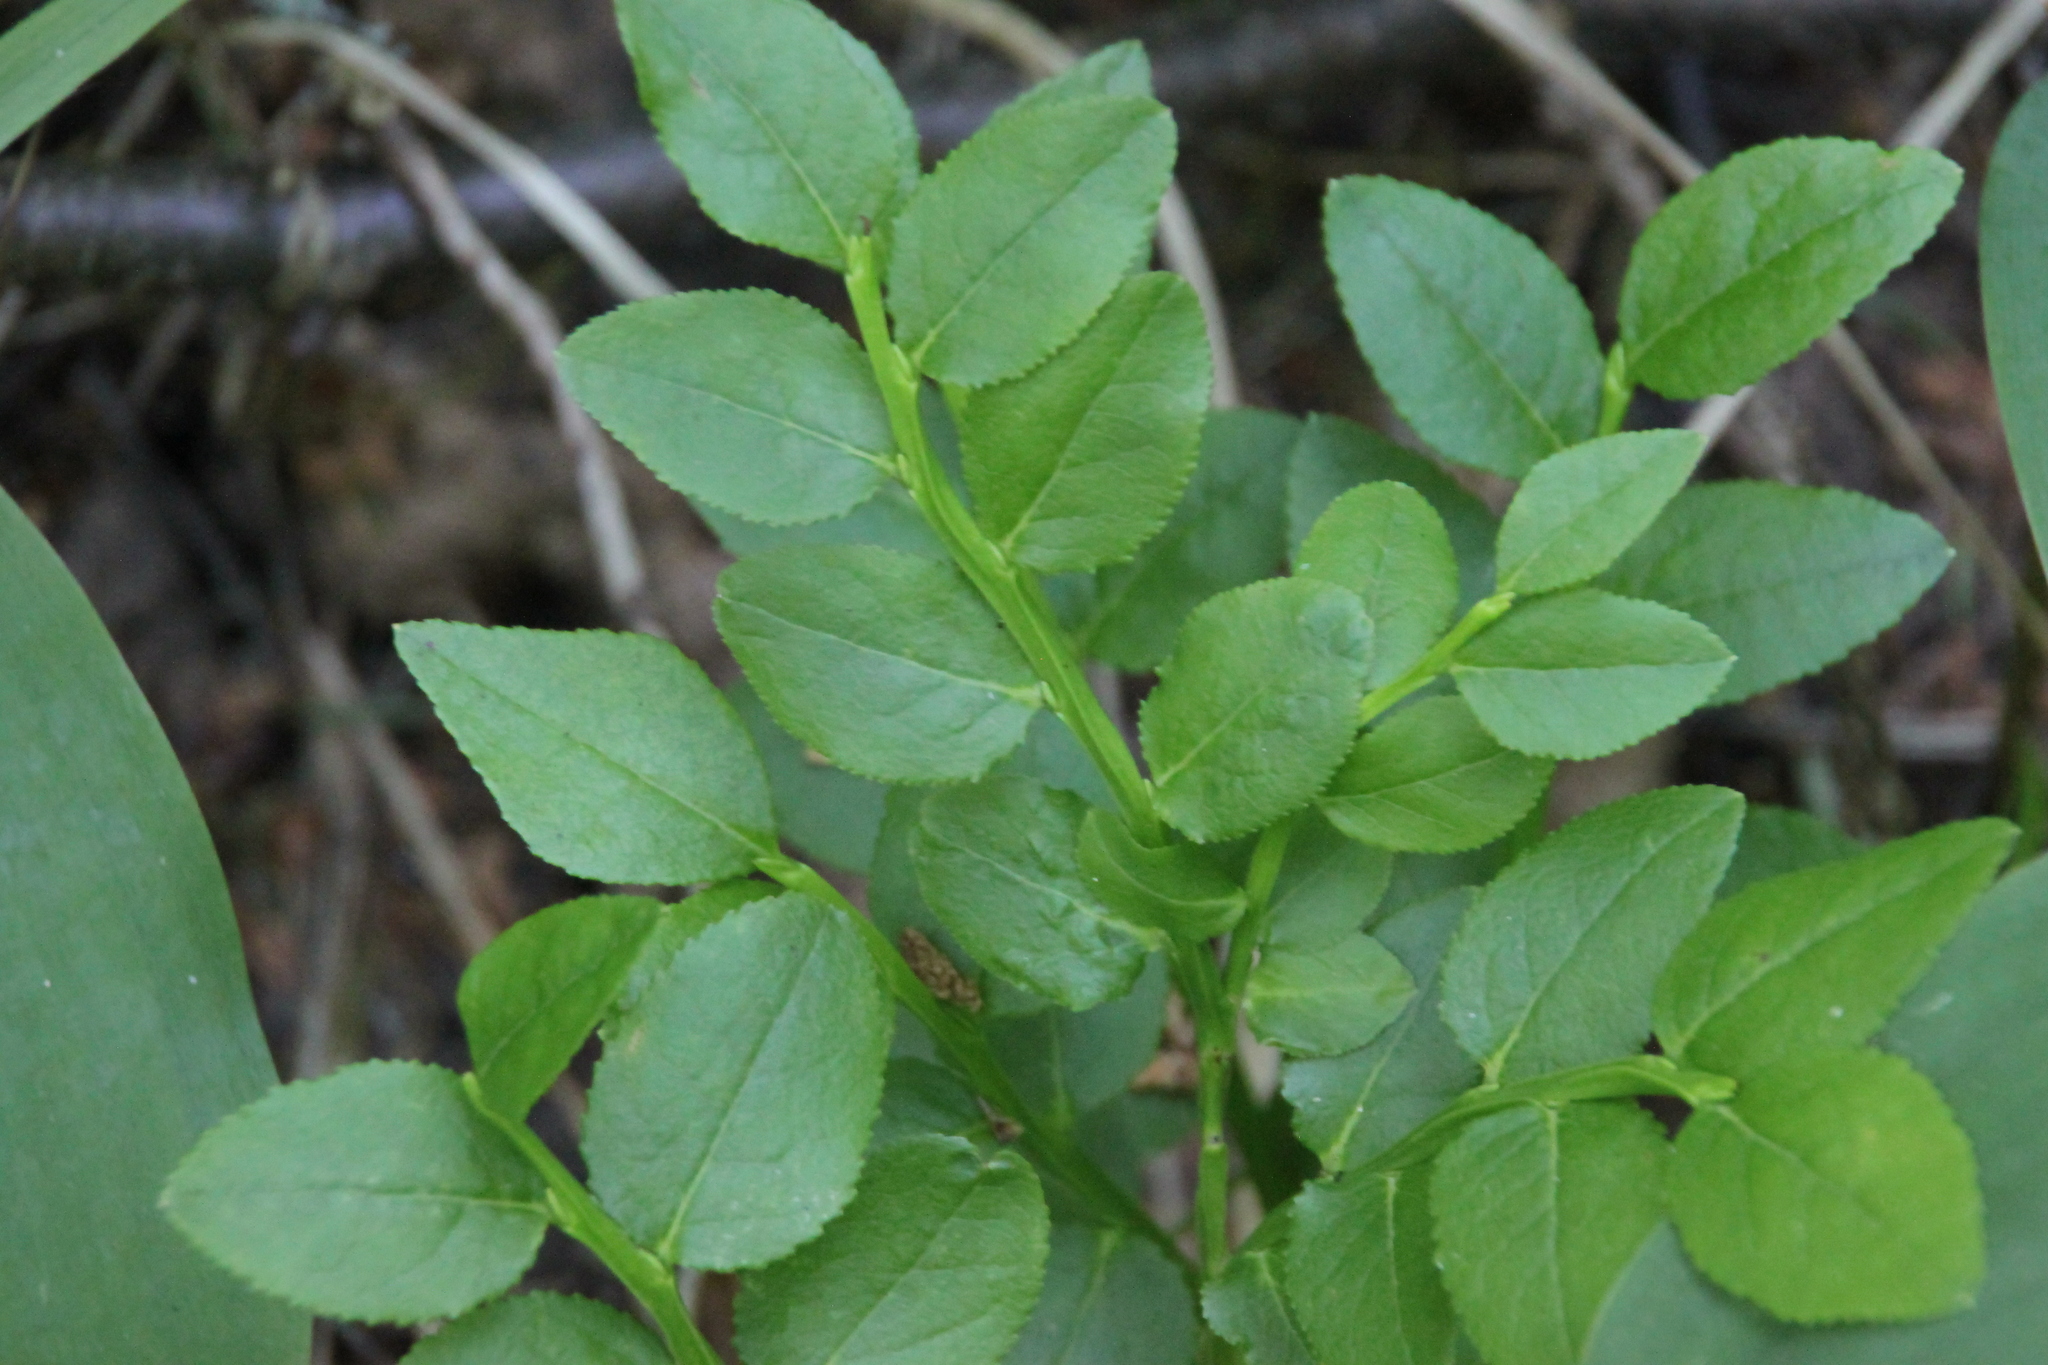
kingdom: Plantae
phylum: Tracheophyta
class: Magnoliopsida
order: Ericales
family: Ericaceae
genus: Vaccinium
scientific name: Vaccinium myrtillus
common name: Bilberry
